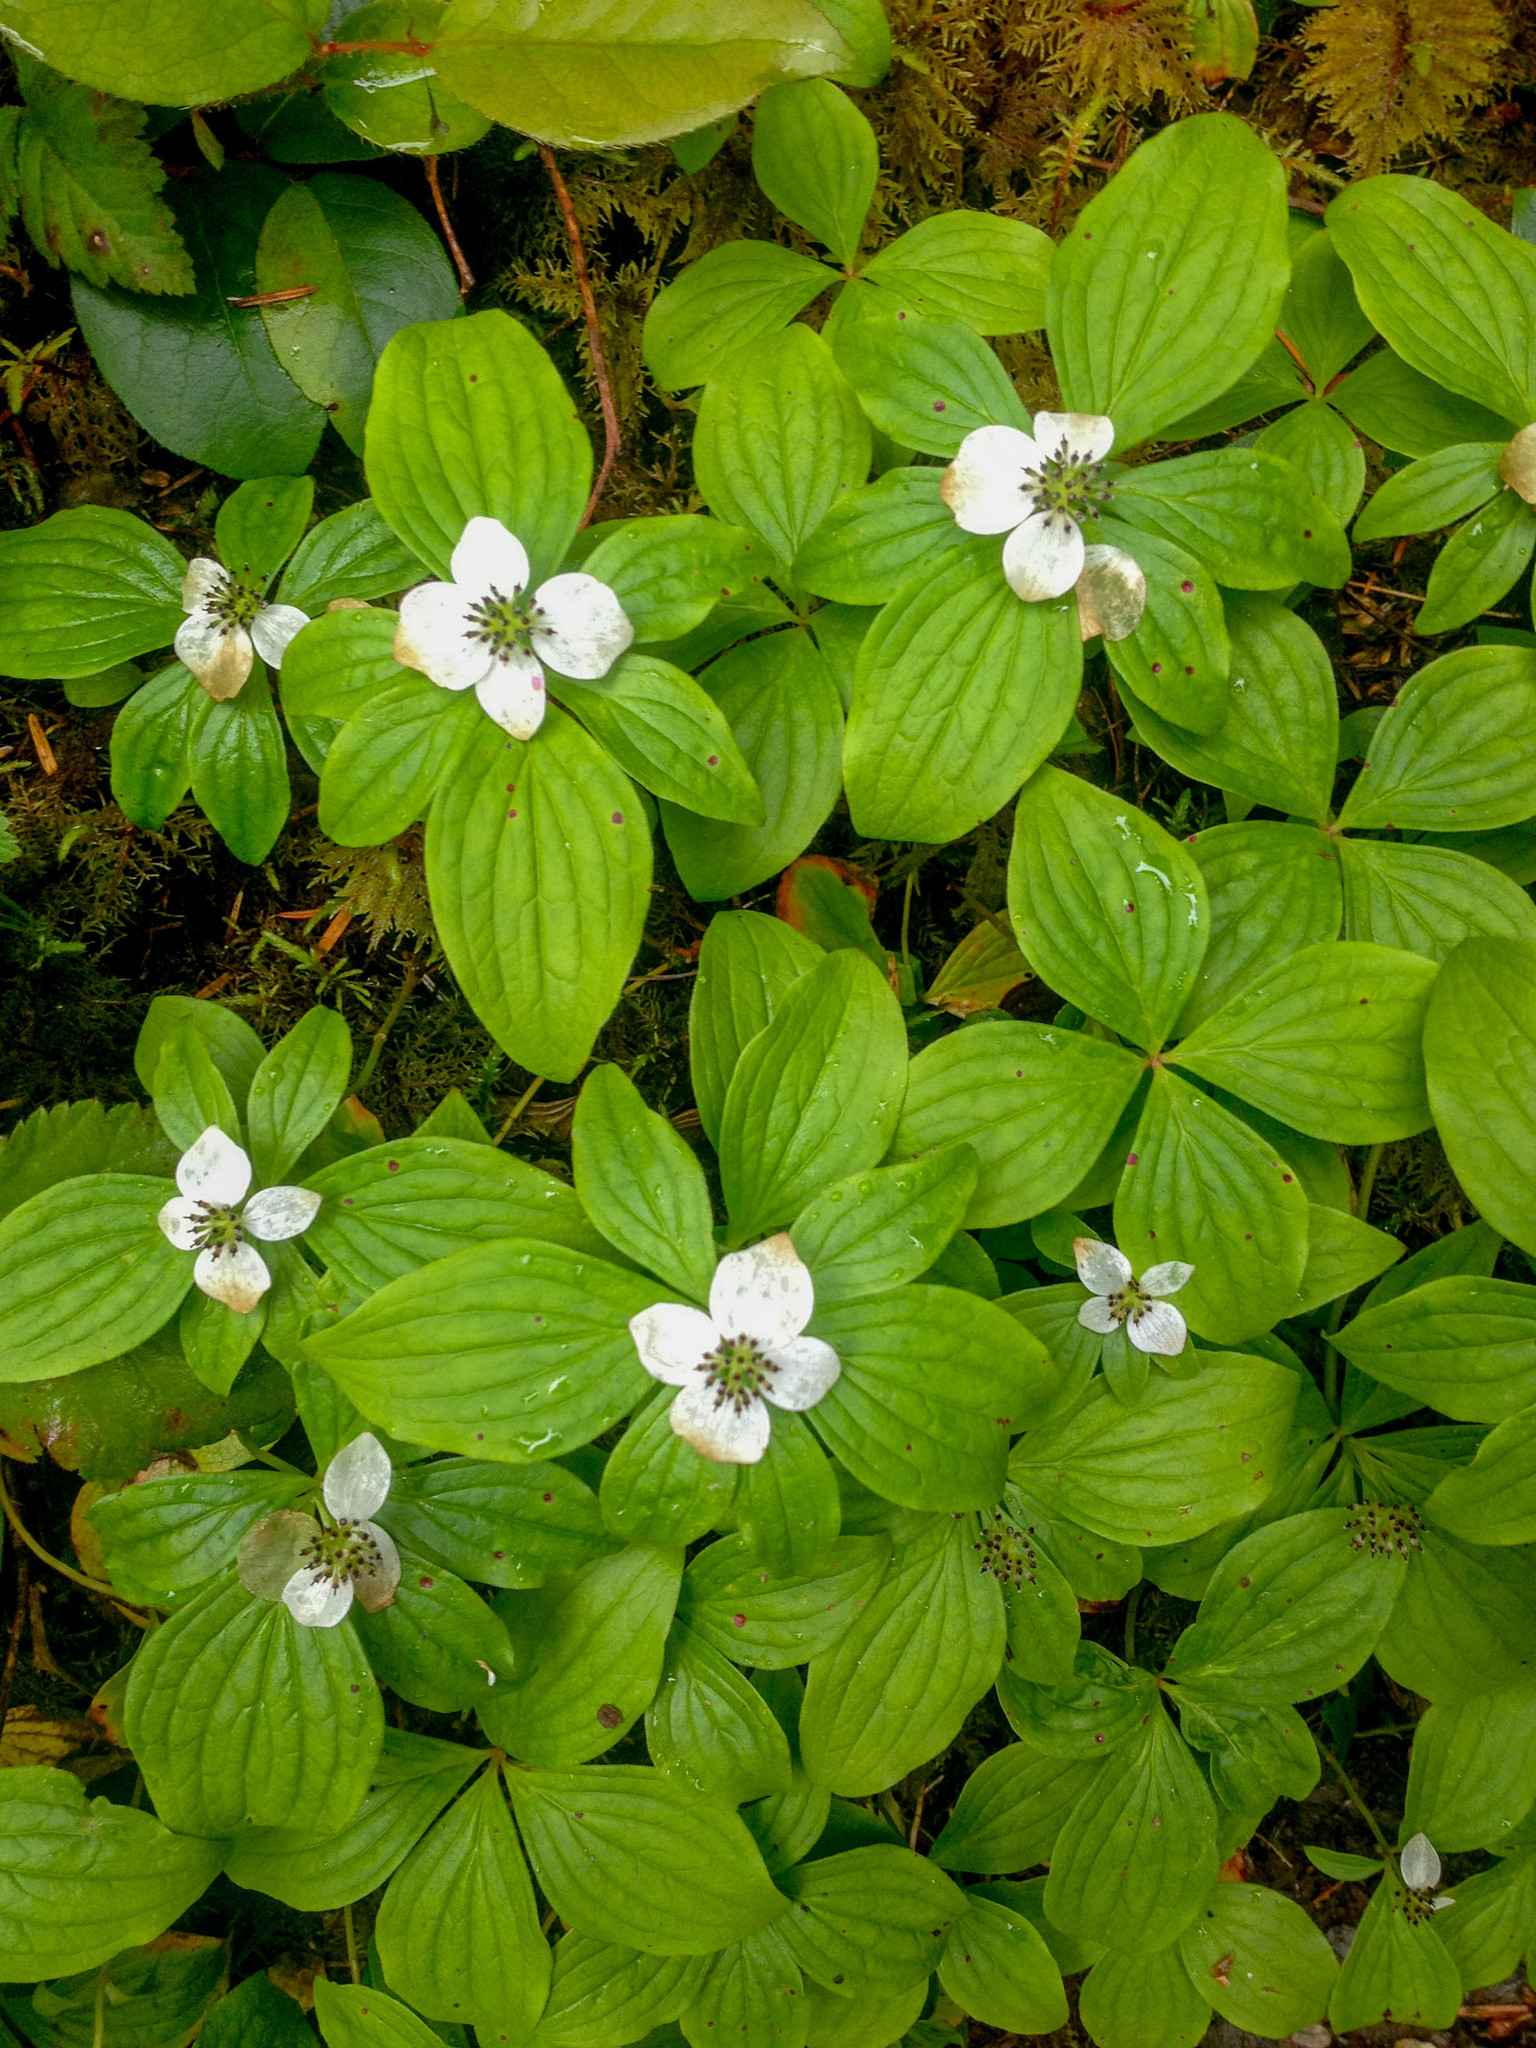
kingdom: Plantae
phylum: Tracheophyta
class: Magnoliopsida
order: Cornales
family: Cornaceae
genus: Cornus
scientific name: Cornus unalaschkensis
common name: Alaska bunchberry
